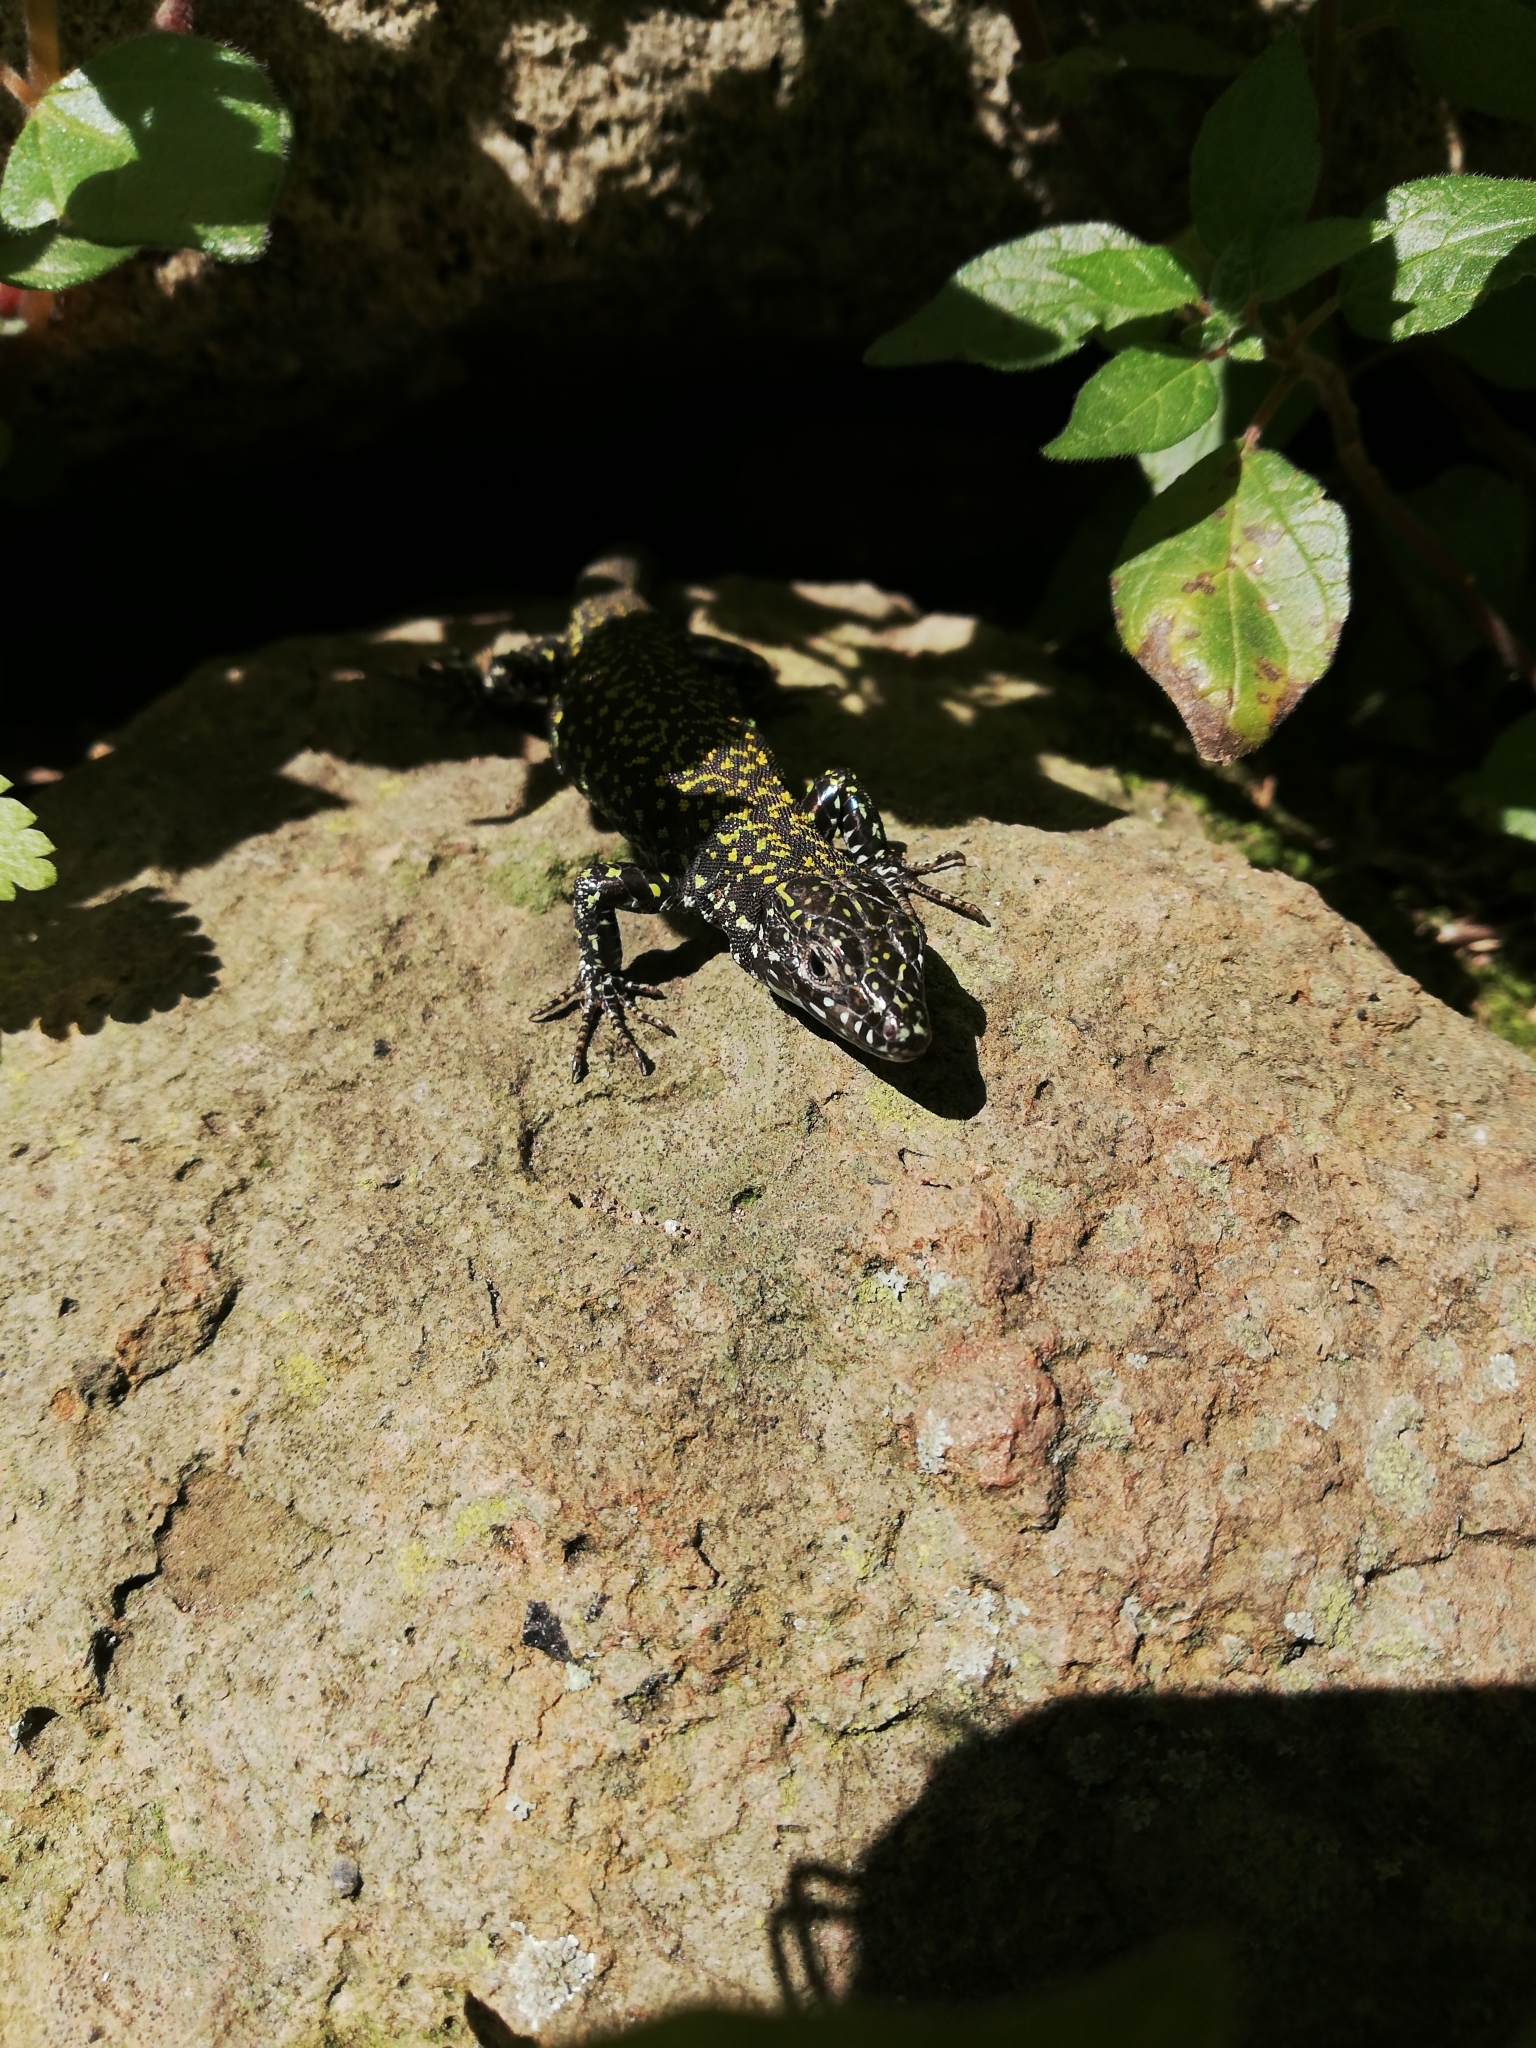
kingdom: Animalia
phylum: Chordata
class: Squamata
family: Lacertidae
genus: Podarcis
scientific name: Podarcis muralis
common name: Common wall lizard
